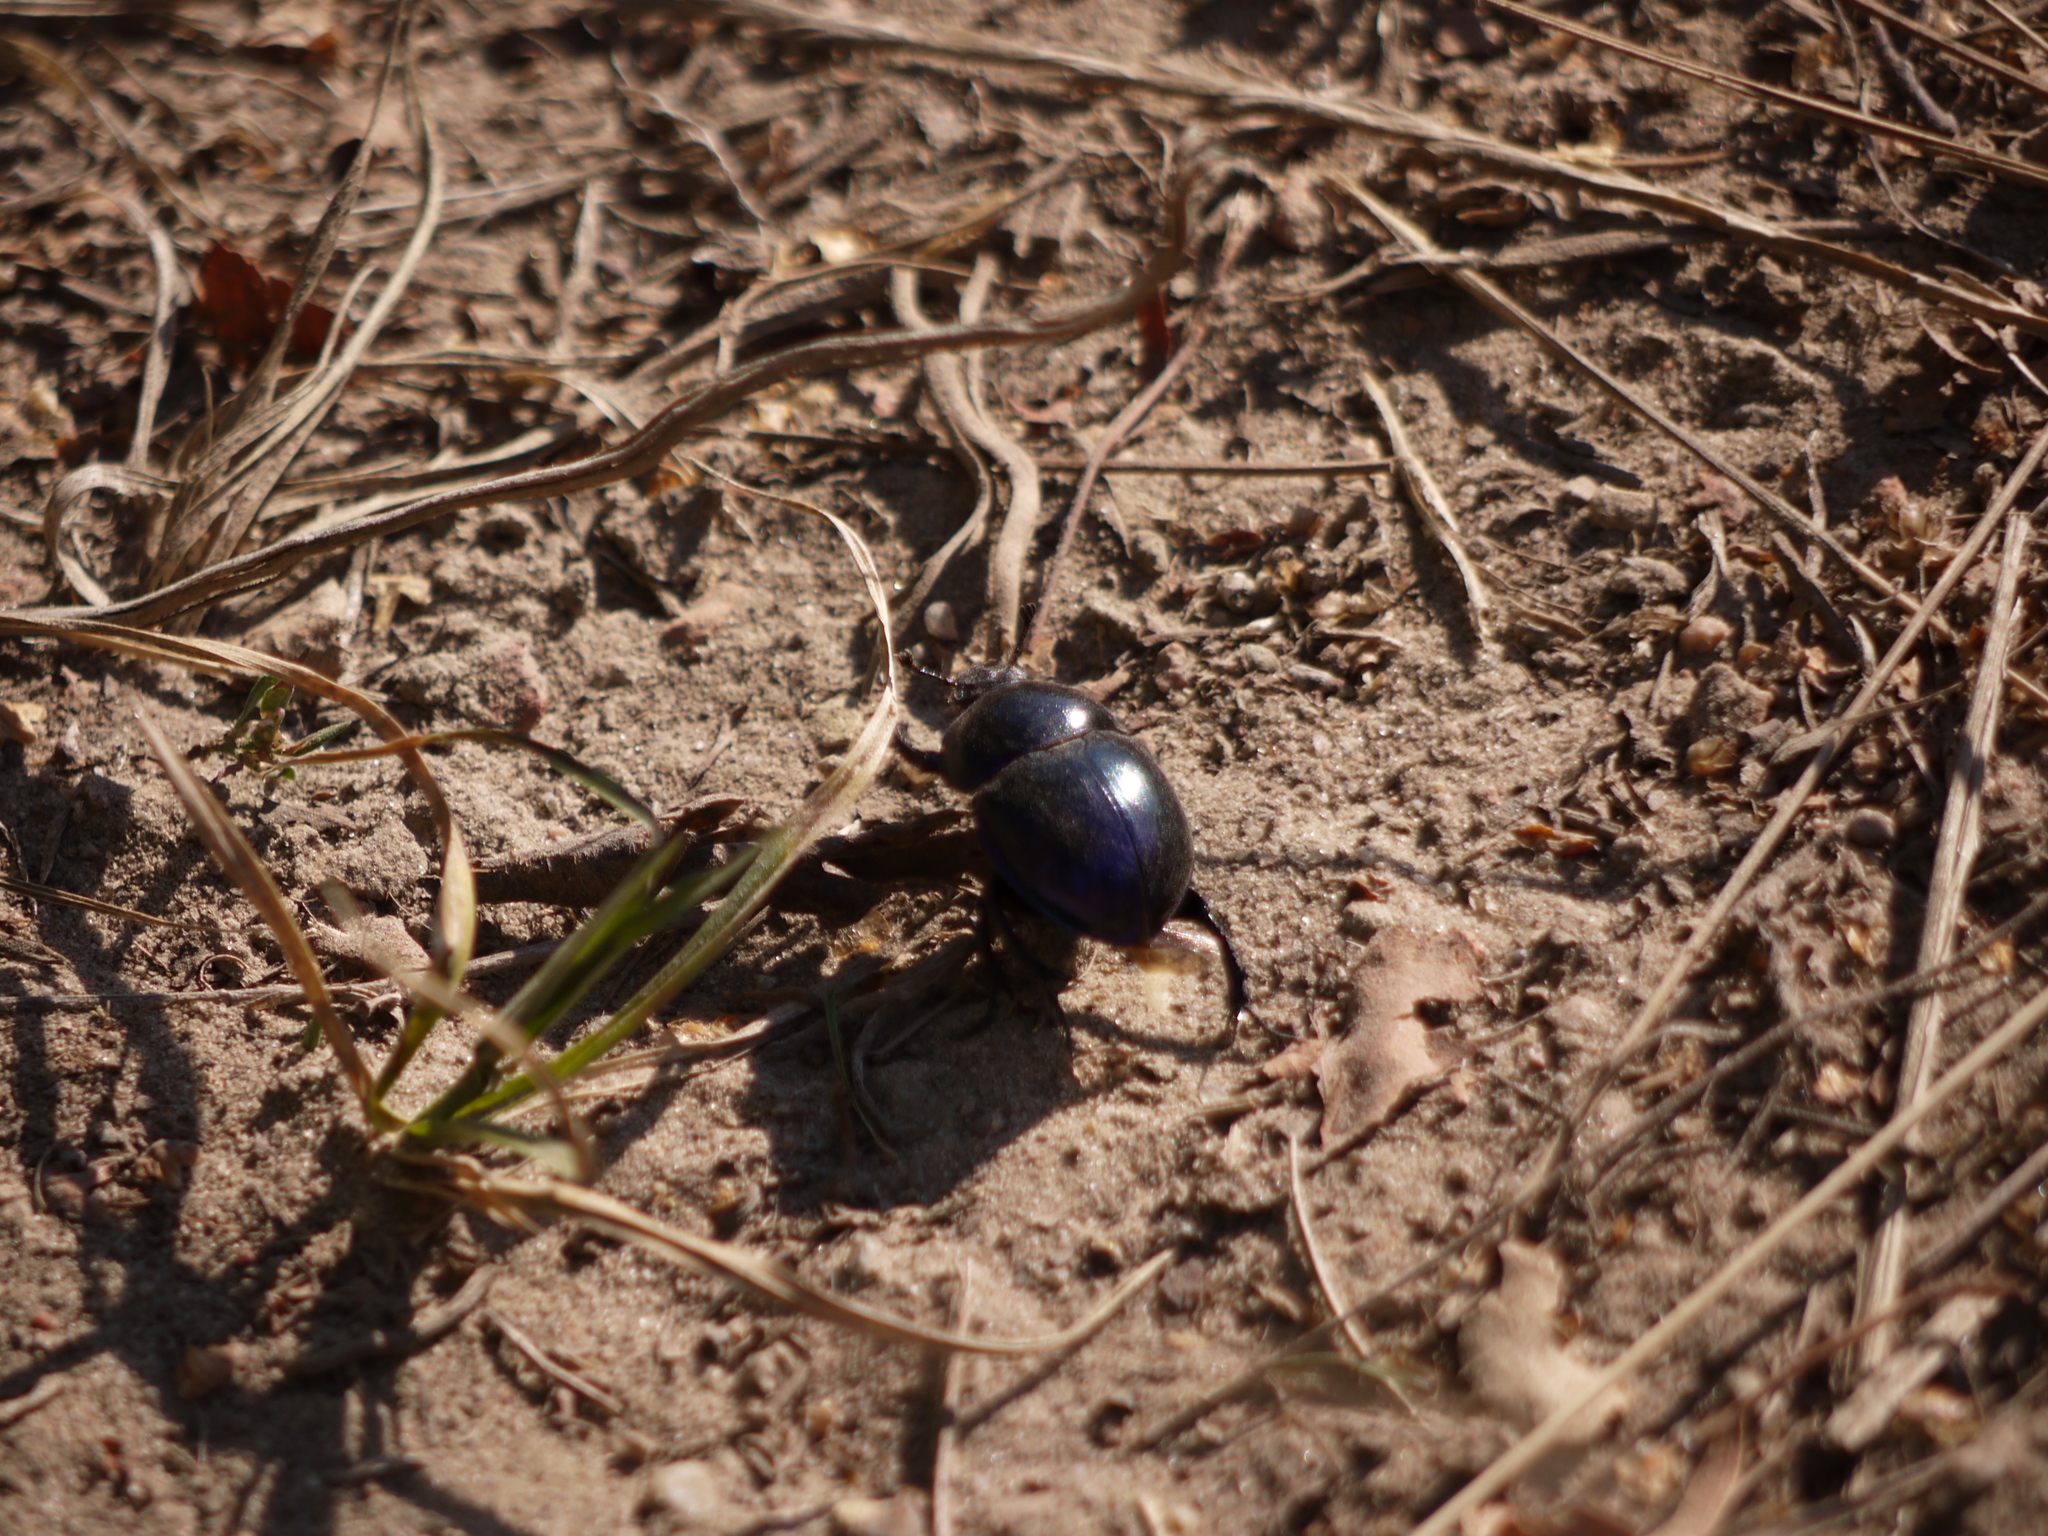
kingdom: Animalia
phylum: Arthropoda
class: Insecta
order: Coleoptera
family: Geotrupidae
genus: Trypocopris
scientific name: Trypocopris vernalis
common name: Spring dumbledor
